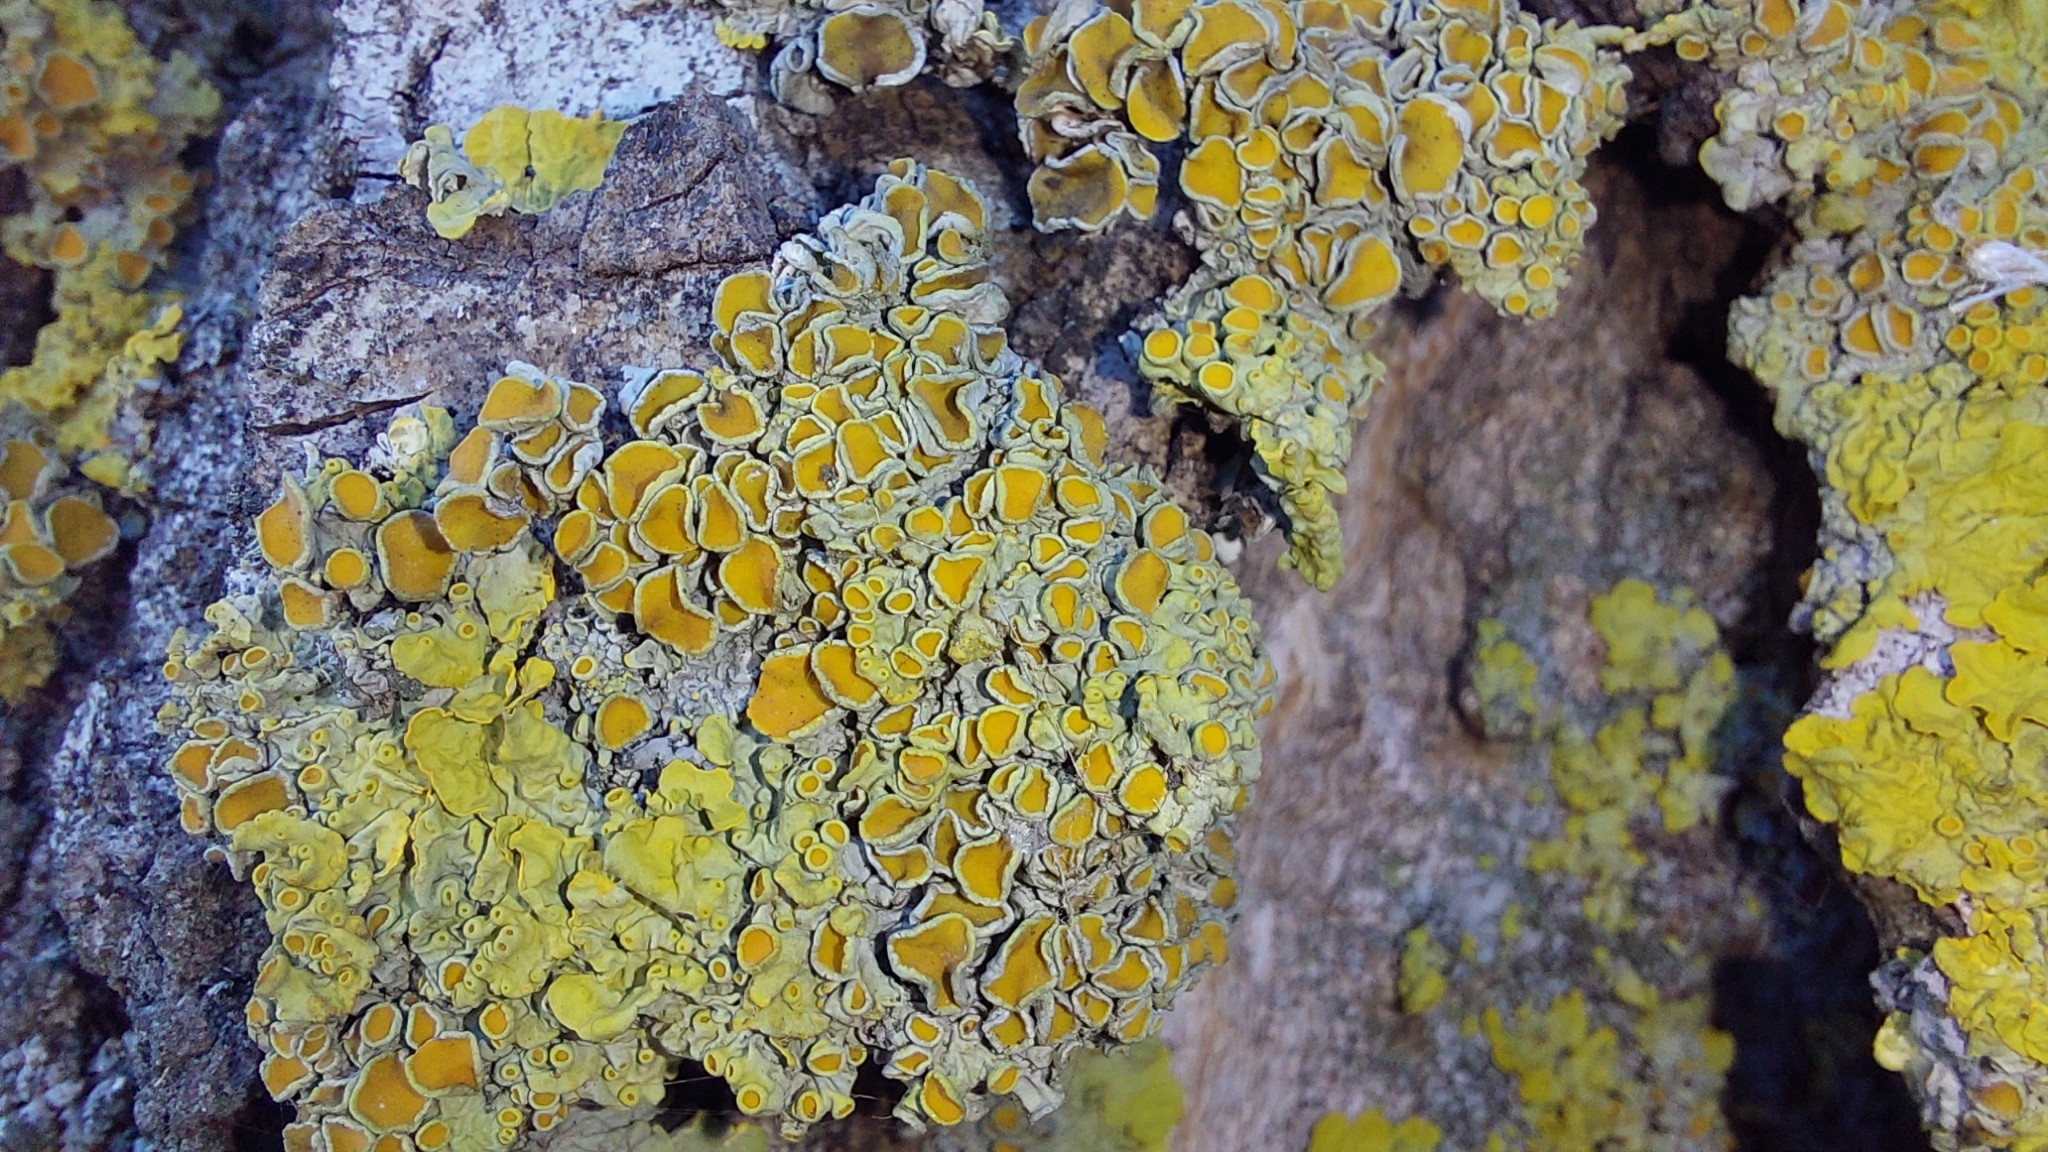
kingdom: Fungi
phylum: Ascomycota
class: Lecanoromycetes
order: Teloschistales
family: Teloschistaceae
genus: Xanthoria
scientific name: Xanthoria parietina
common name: Common orange lichen
